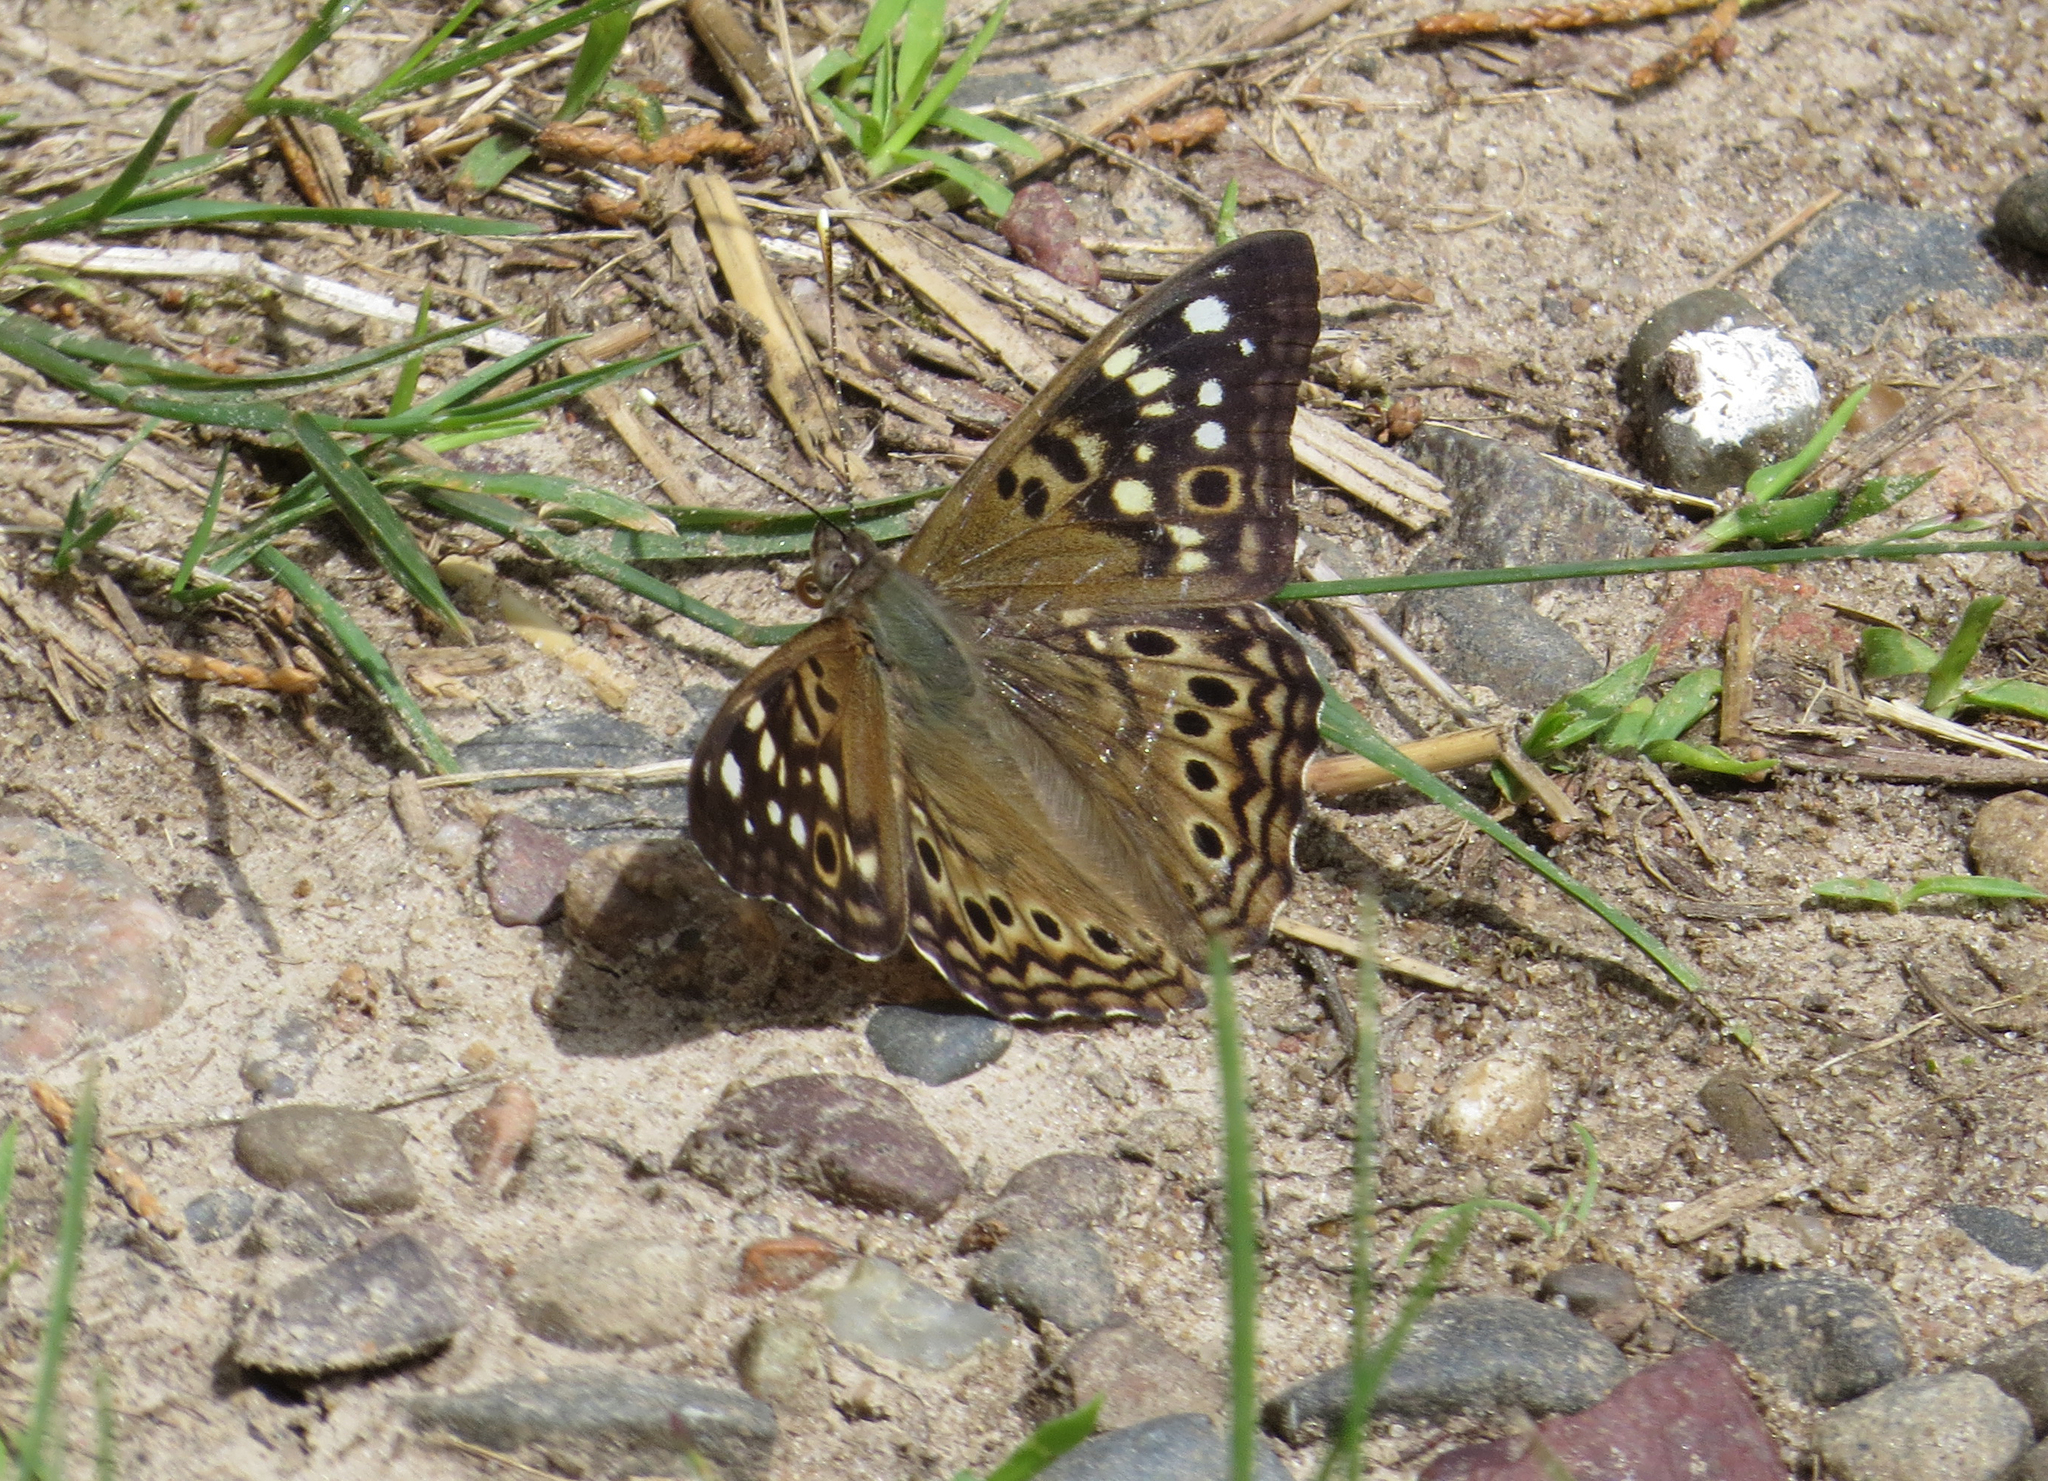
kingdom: Animalia
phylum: Arthropoda
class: Insecta
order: Lepidoptera
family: Nymphalidae
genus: Asterocampa
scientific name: Asterocampa celtis
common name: Hackberry emperor
